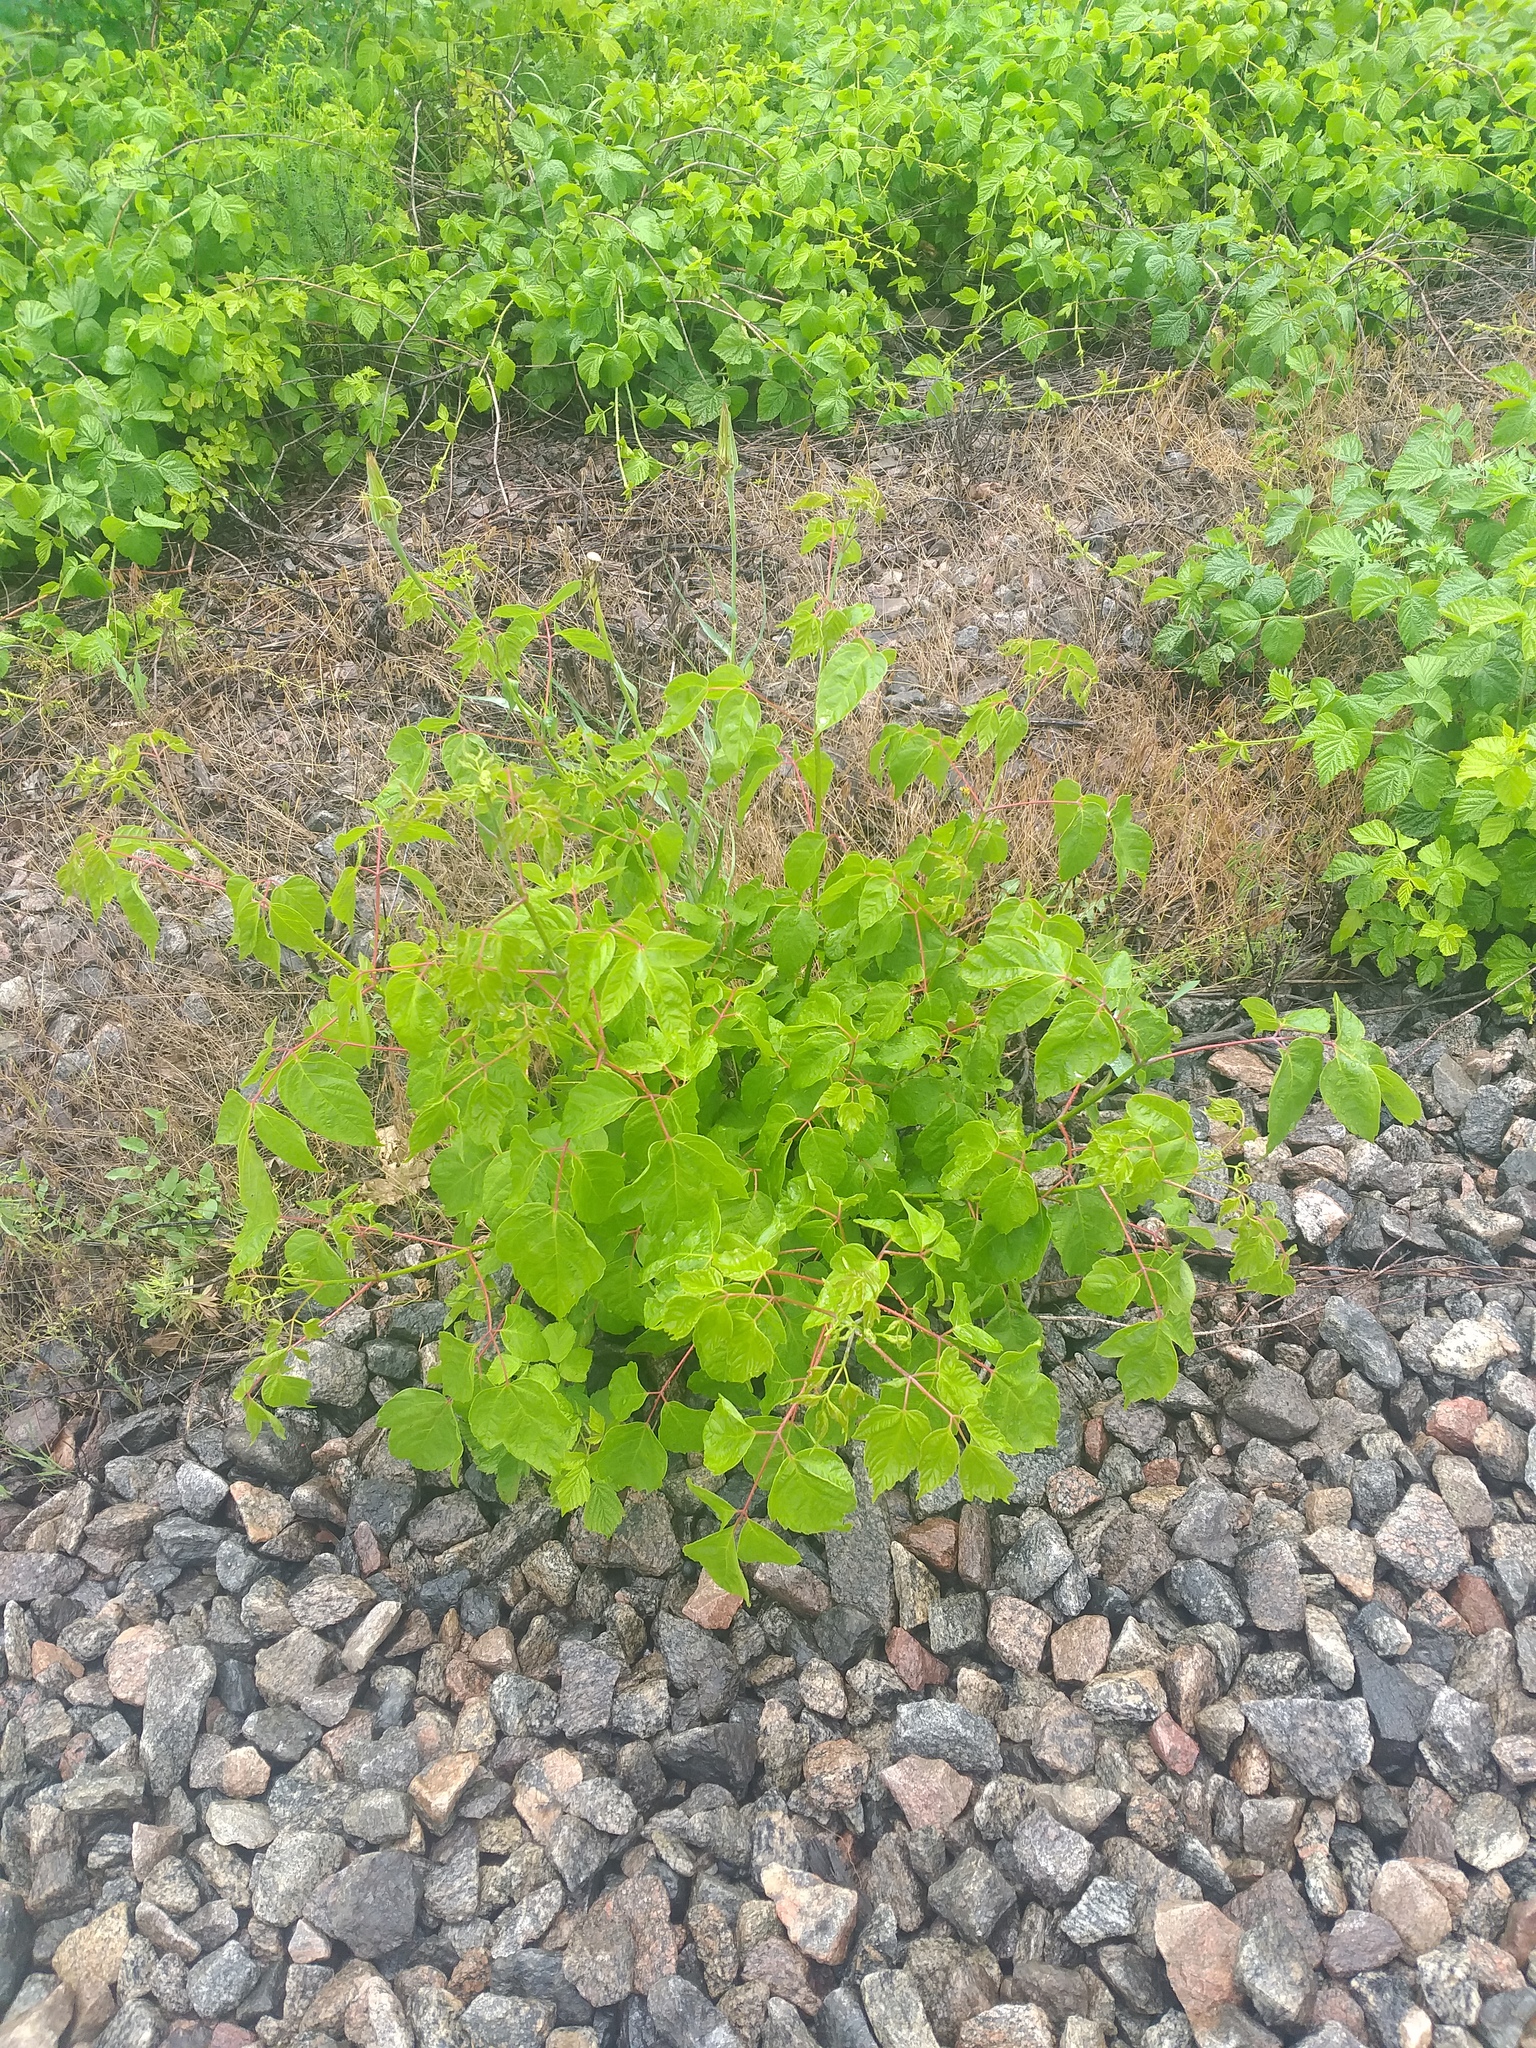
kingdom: Plantae
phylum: Tracheophyta
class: Magnoliopsida
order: Sapindales
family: Sapindaceae
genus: Acer
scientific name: Acer negundo
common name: Ashleaf maple
